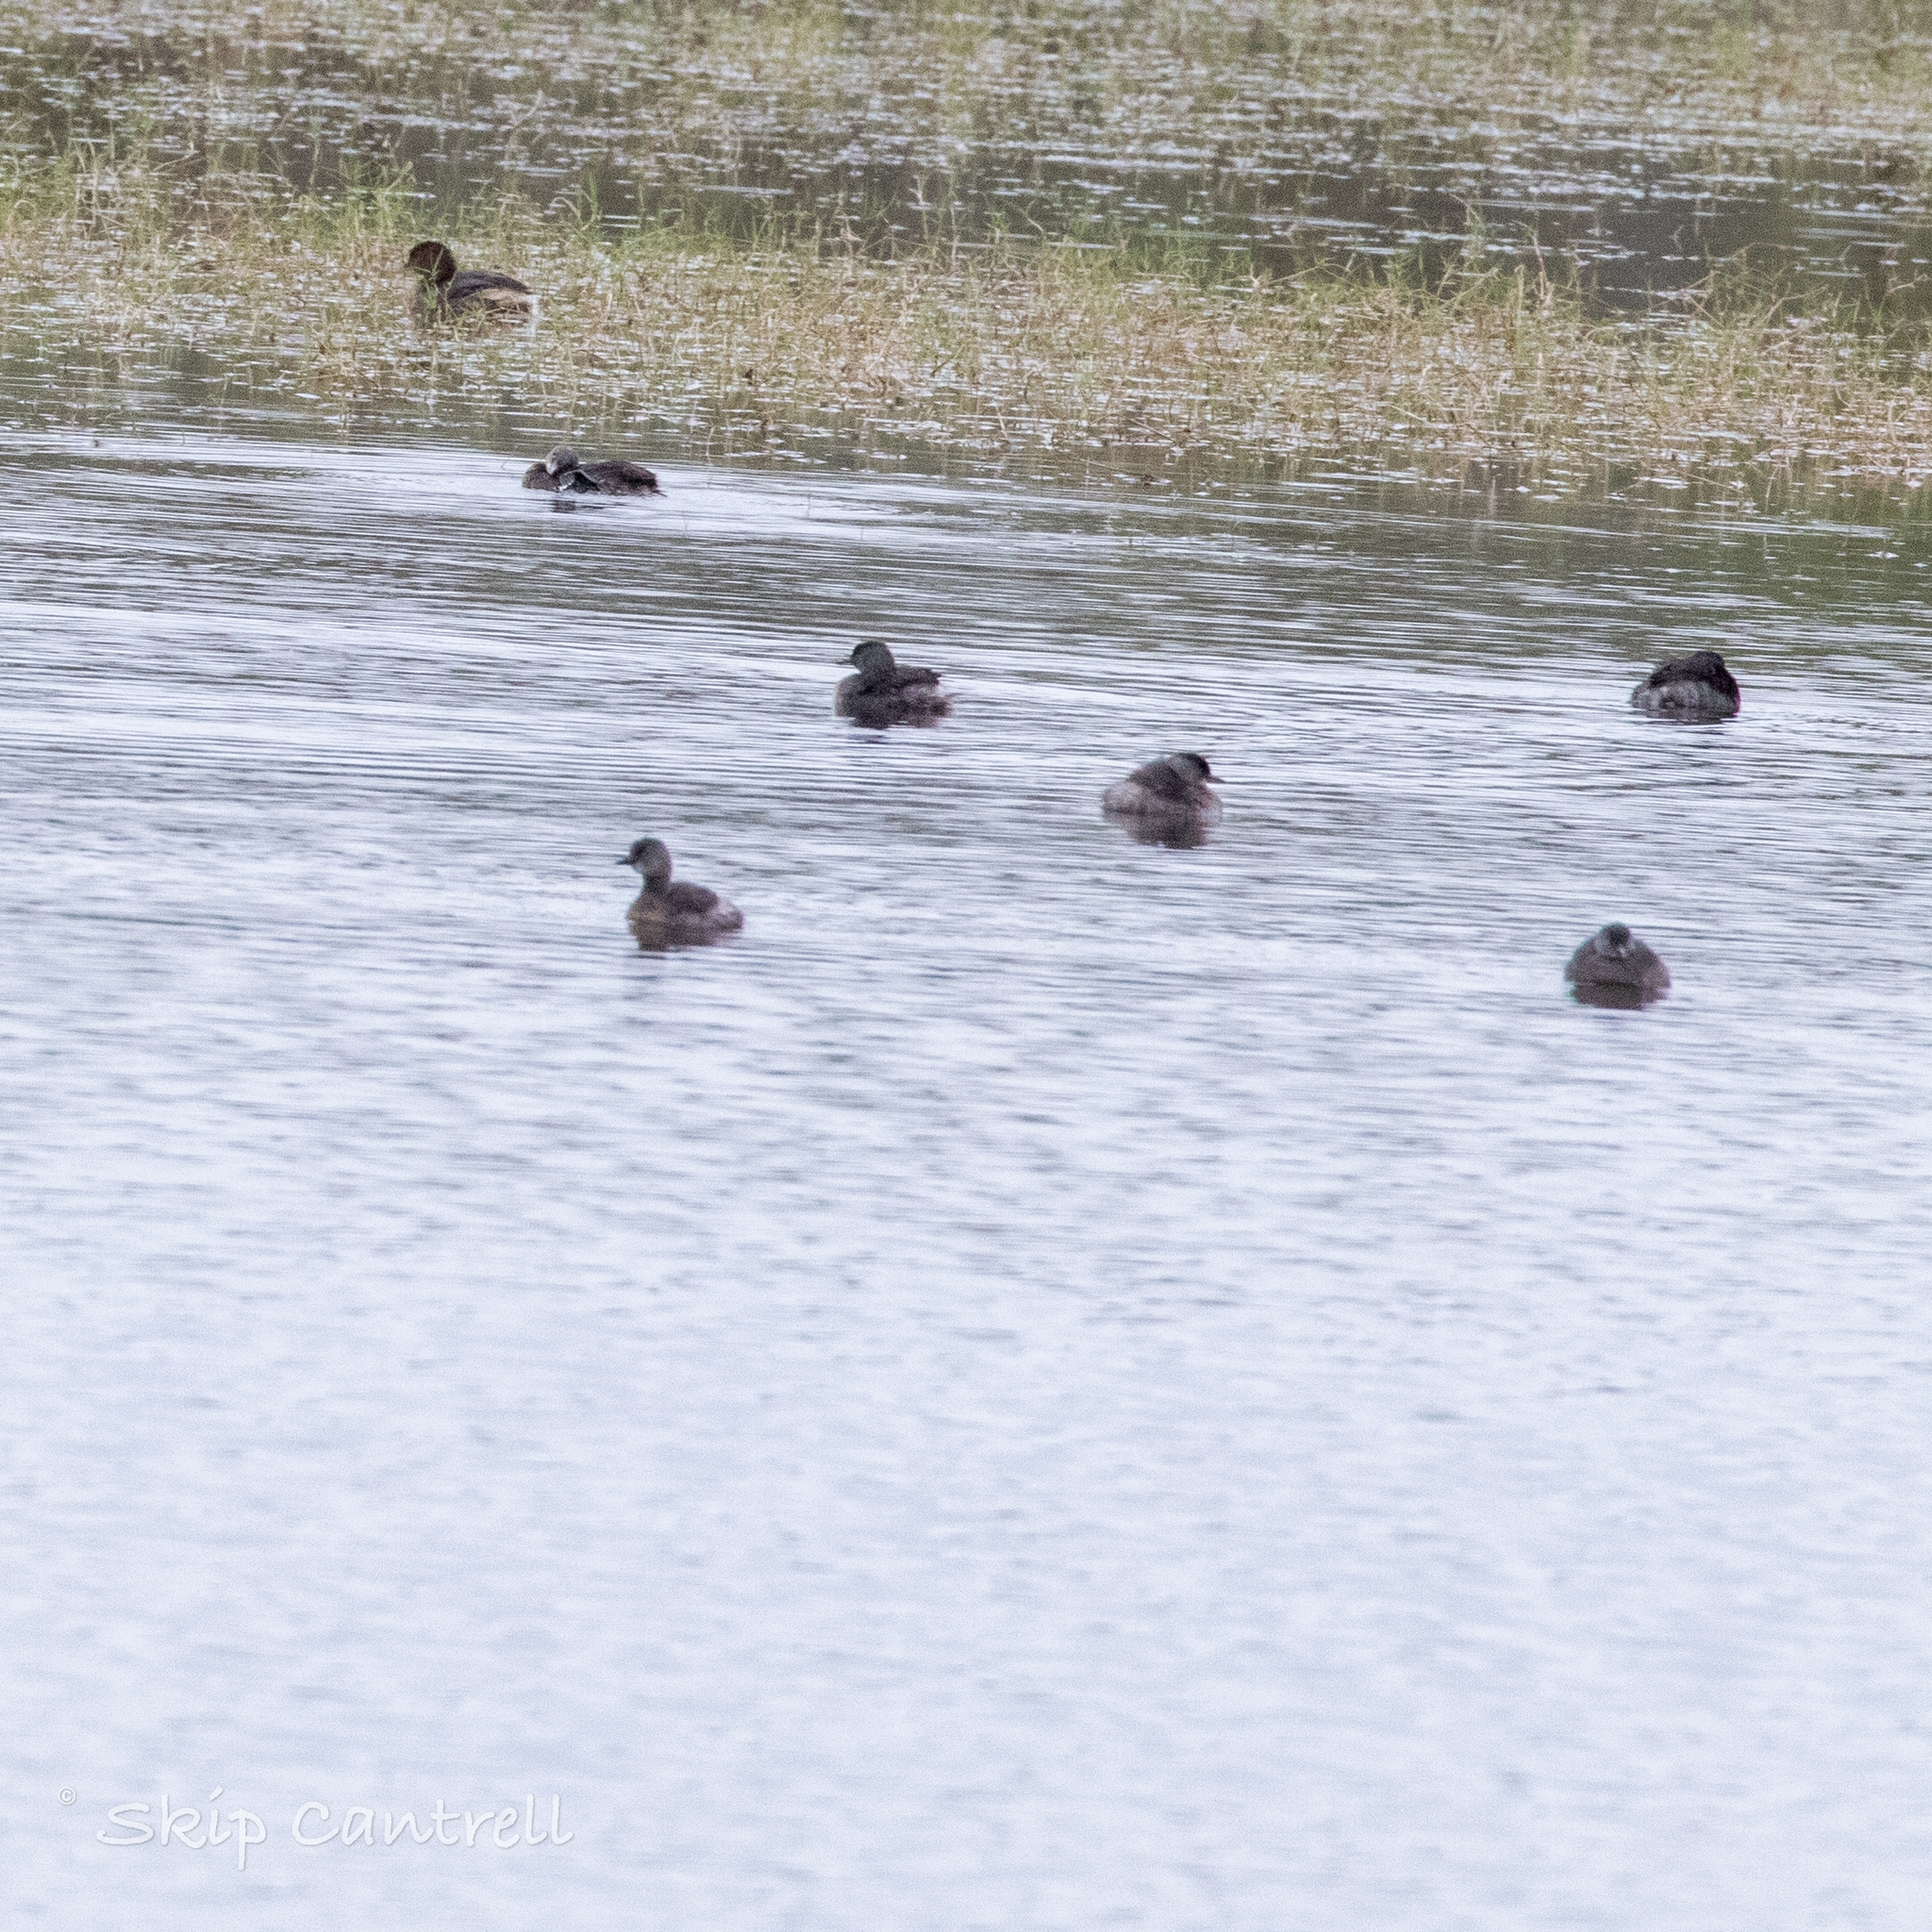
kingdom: Animalia
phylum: Chordata
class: Aves
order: Podicipediformes
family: Podicipedidae
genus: Tachybaptus
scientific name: Tachybaptus dominicus
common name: Least grebe
